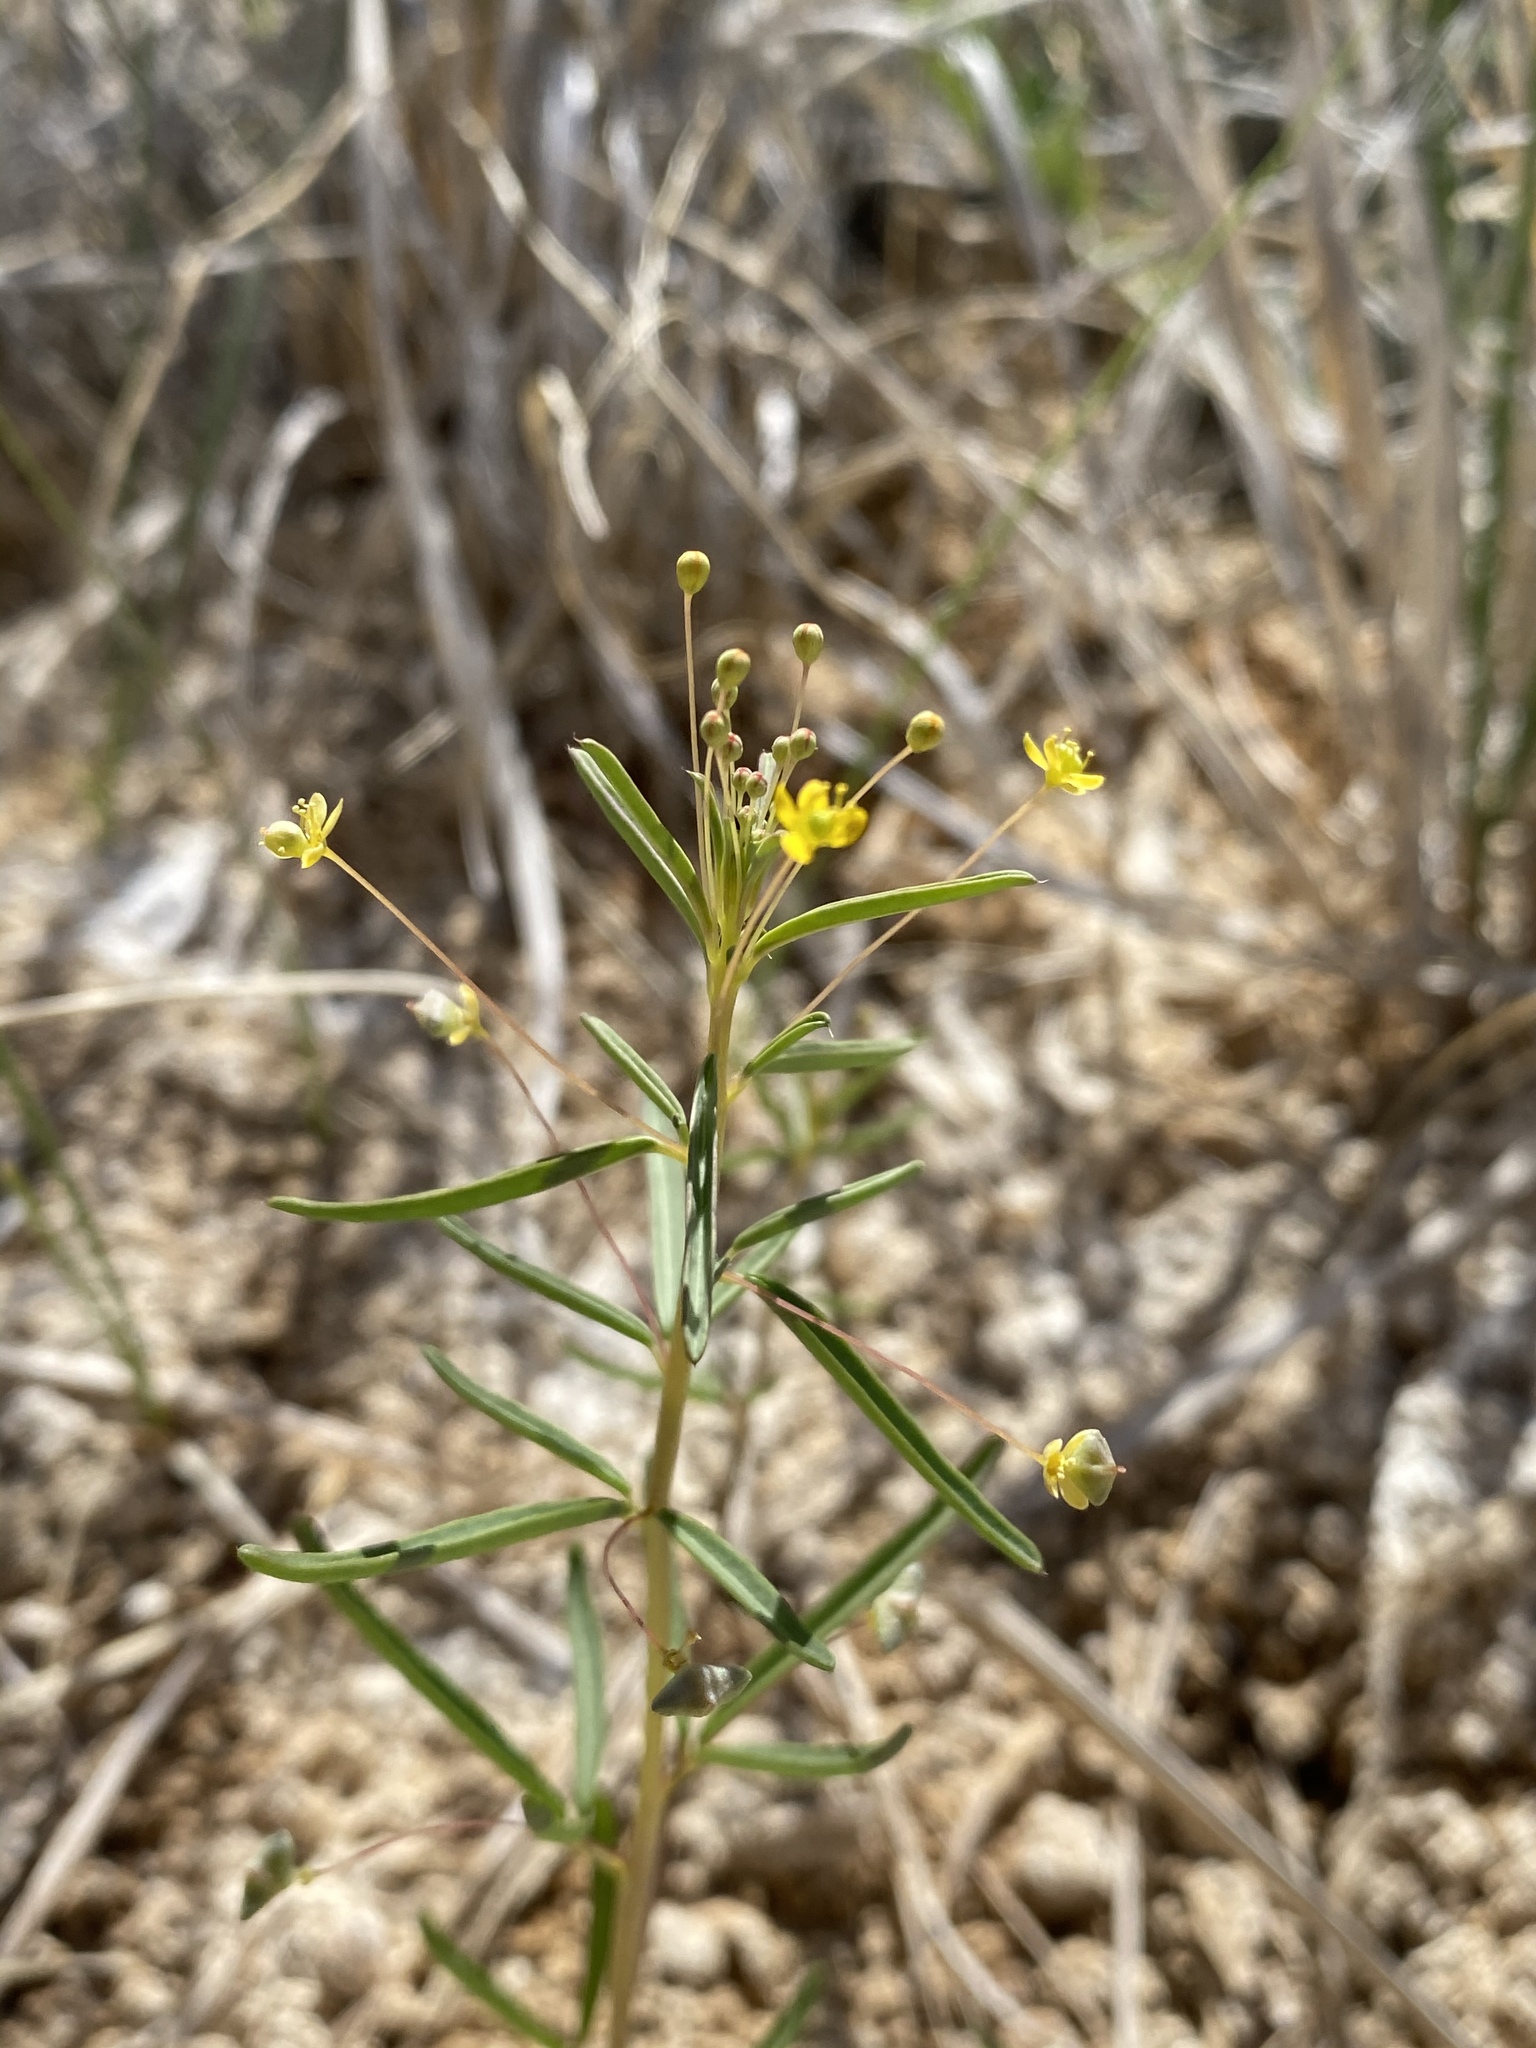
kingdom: Plantae
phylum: Tracheophyta
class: Magnoliopsida
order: Brassicales
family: Cleomaceae
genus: Cleomella
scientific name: Cleomella parviflora
